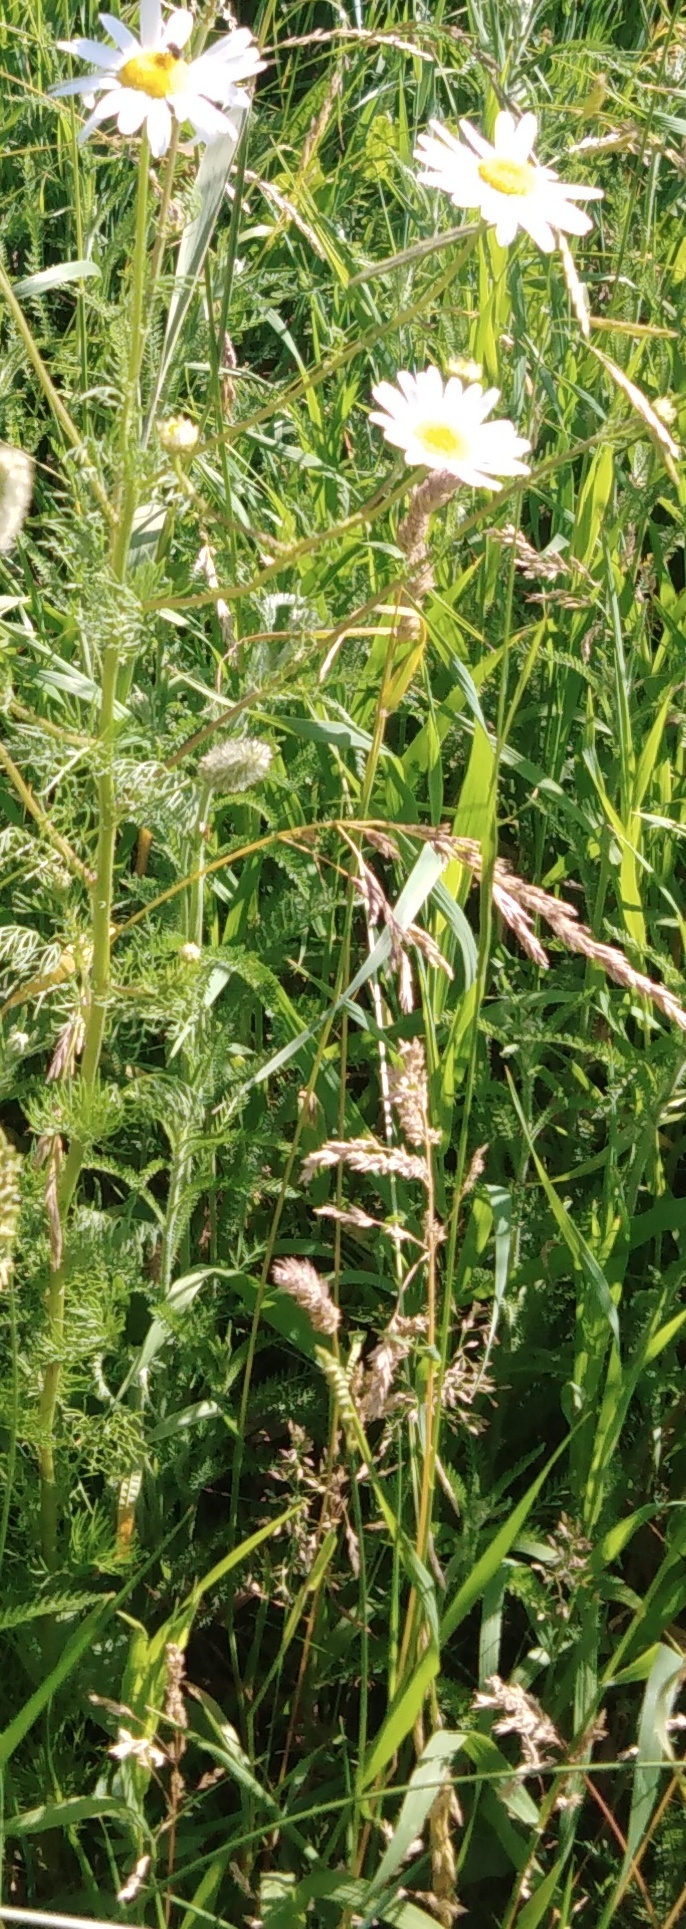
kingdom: Plantae
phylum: Tracheophyta
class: Magnoliopsida
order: Asterales
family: Asteraceae
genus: Tripleurospermum
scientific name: Tripleurospermum inodorum
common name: Scentless mayweed
